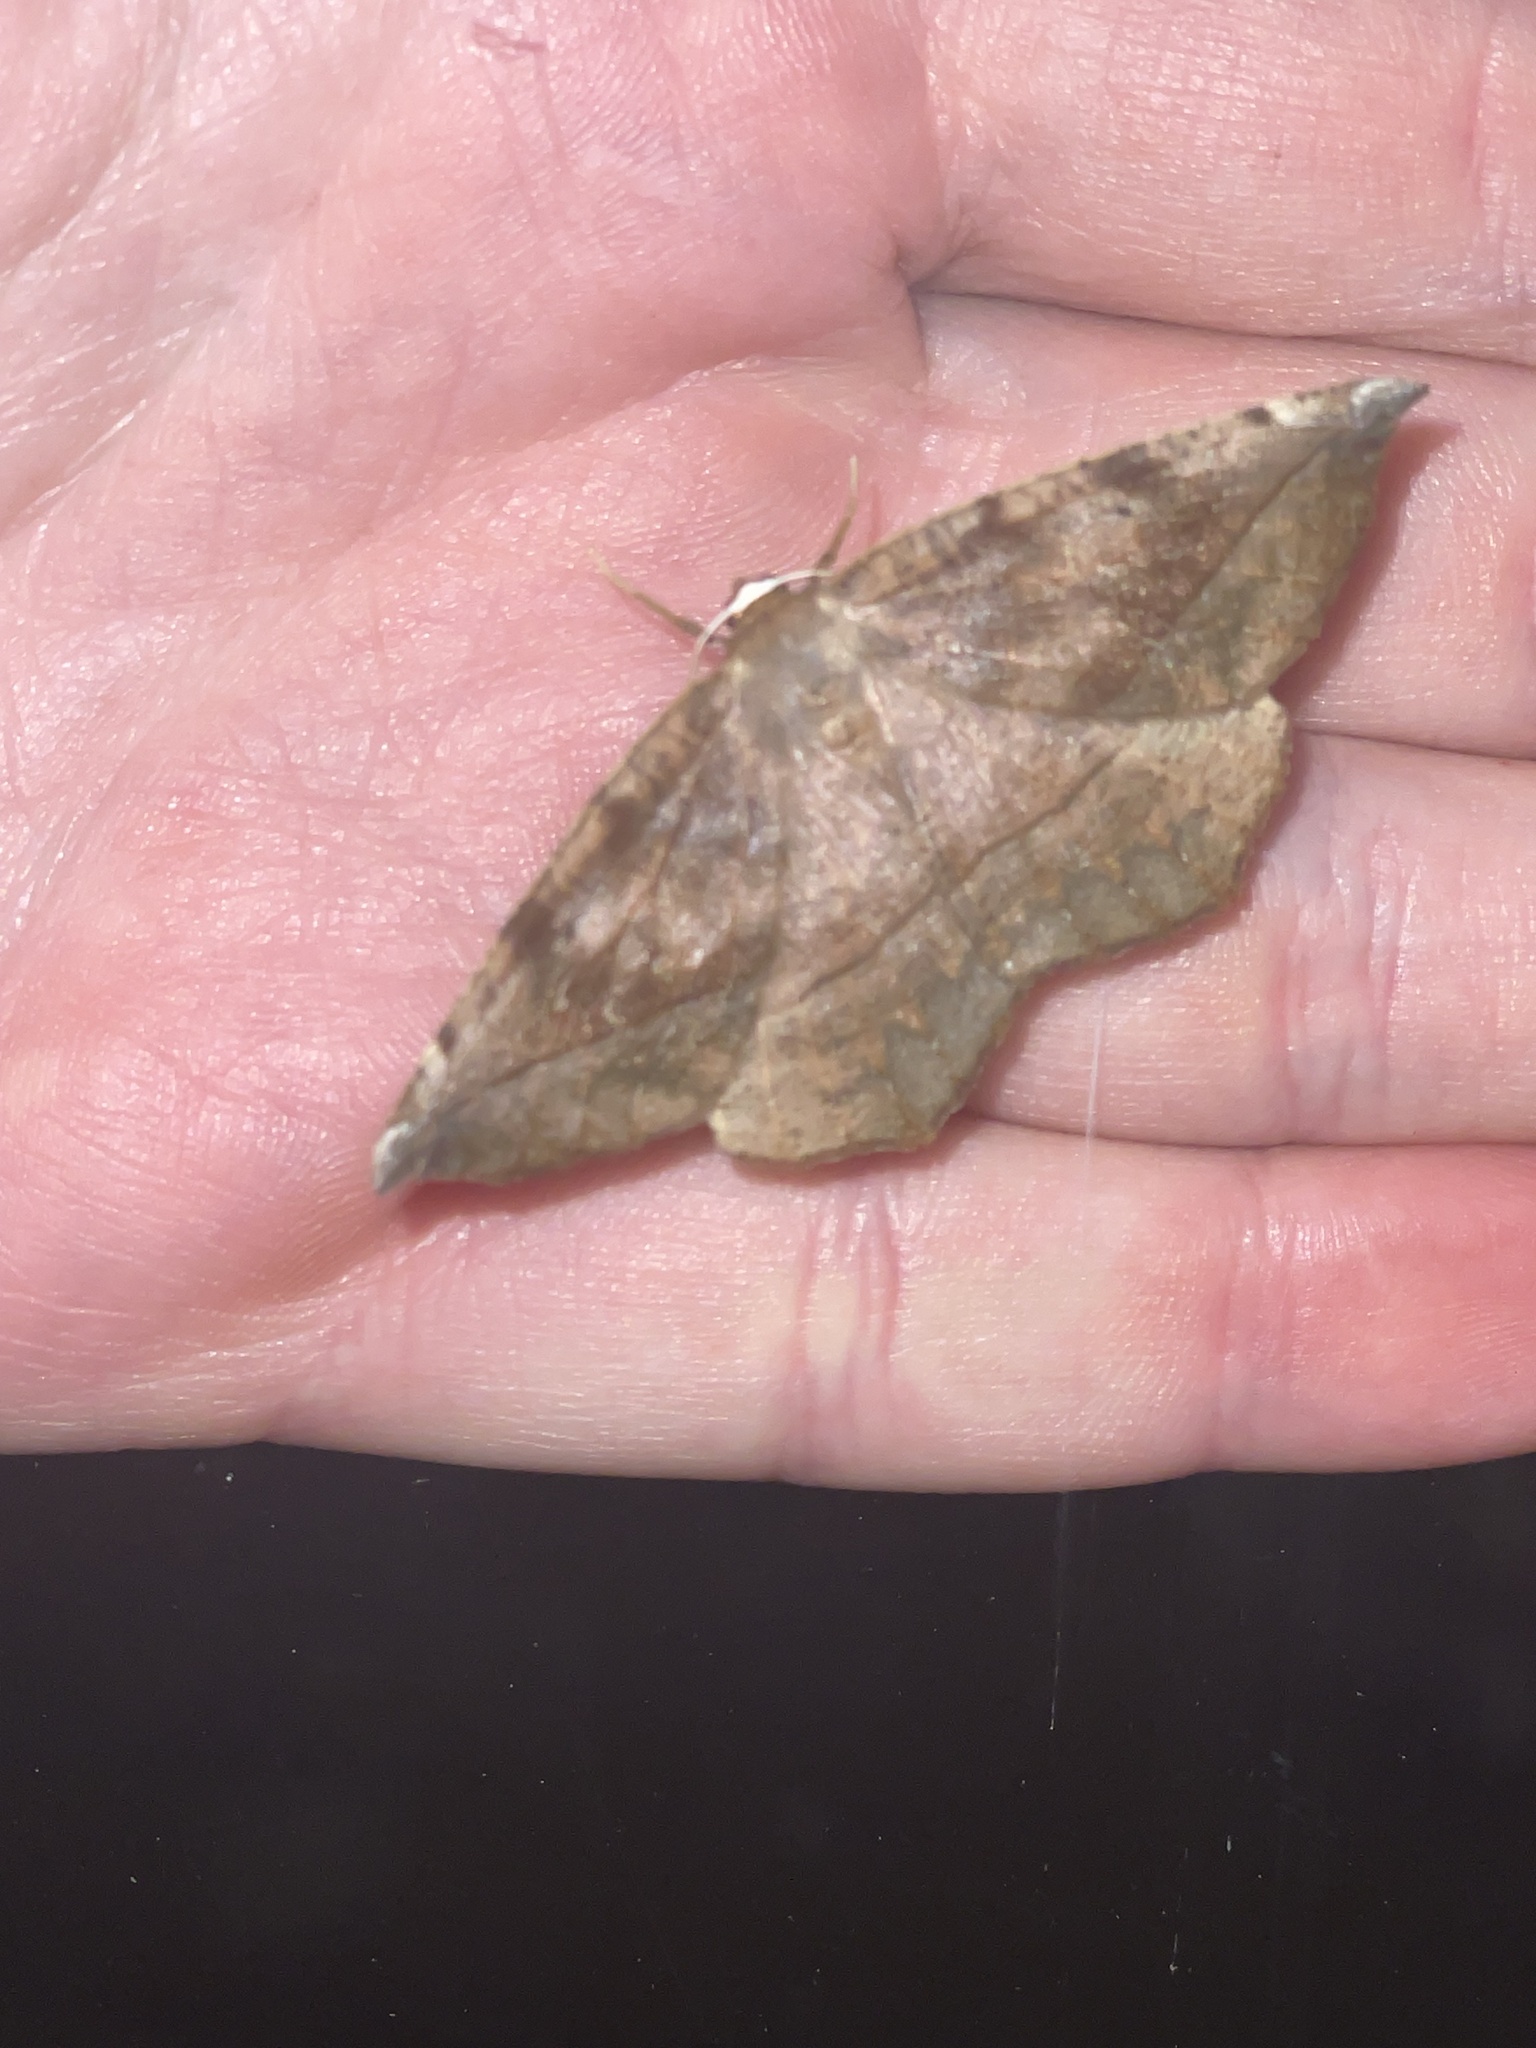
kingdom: Animalia
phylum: Arthropoda
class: Insecta
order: Lepidoptera
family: Geometridae
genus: Eutrapela
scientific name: Eutrapela clemataria
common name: Curved-toothed geometer
